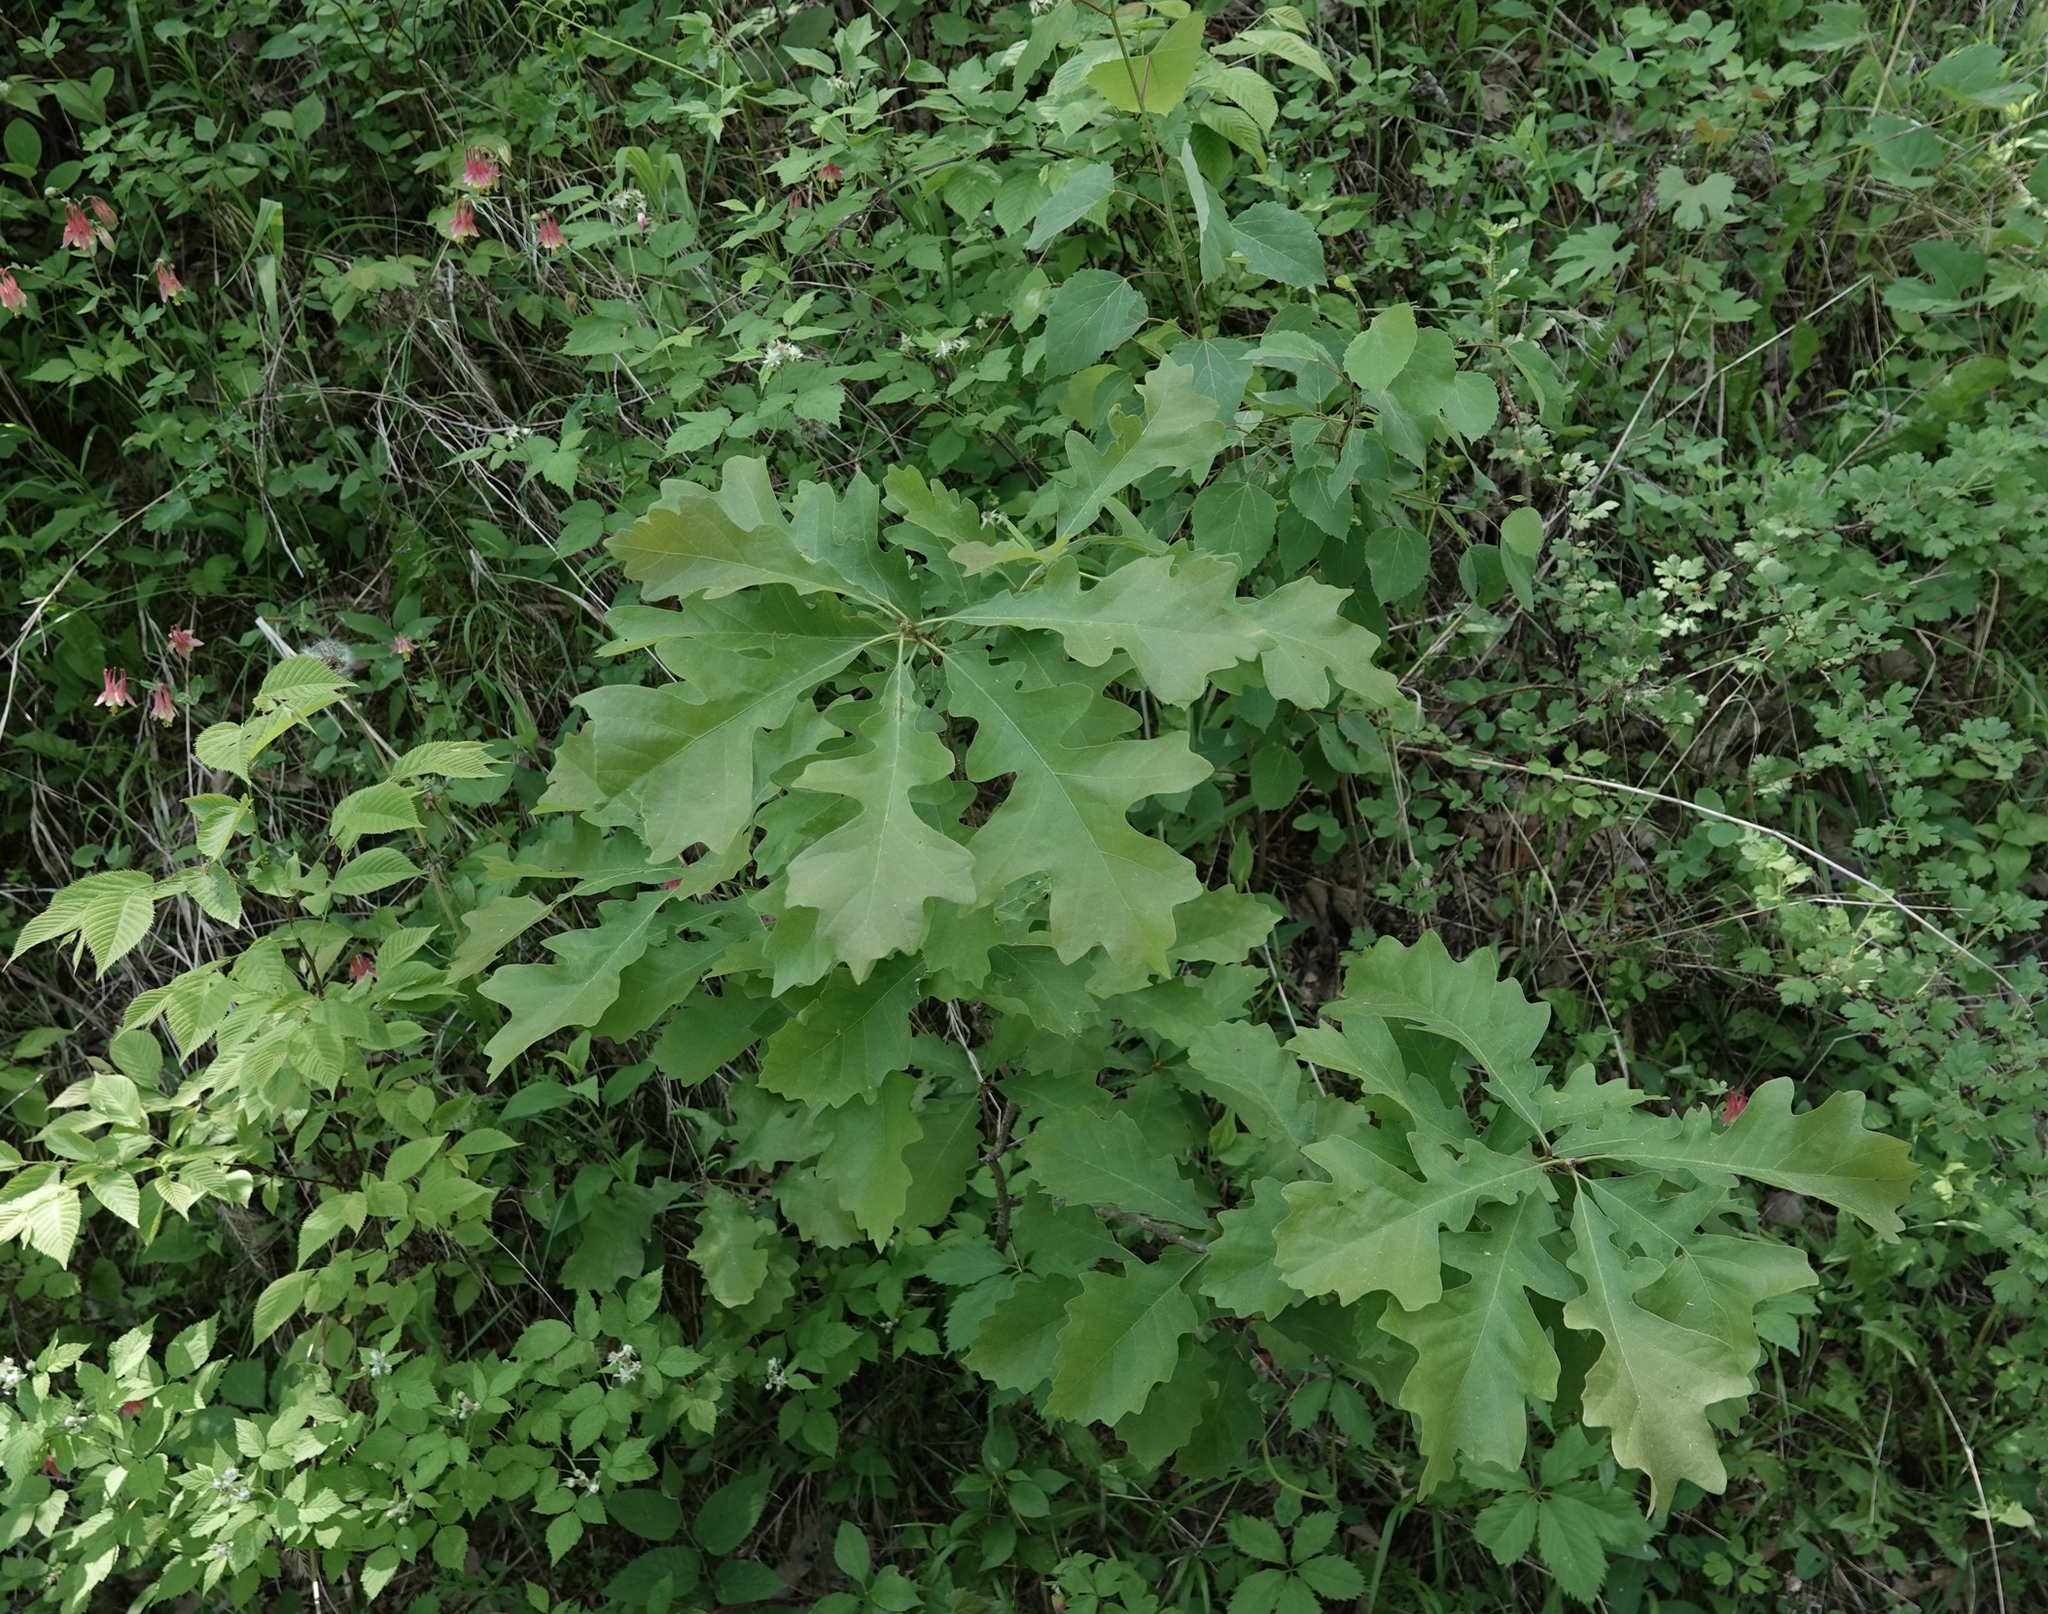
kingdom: Plantae
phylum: Tracheophyta
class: Magnoliopsida
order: Fagales
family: Fagaceae
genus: Quercus
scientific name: Quercus macrocarpa
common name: Bur oak
